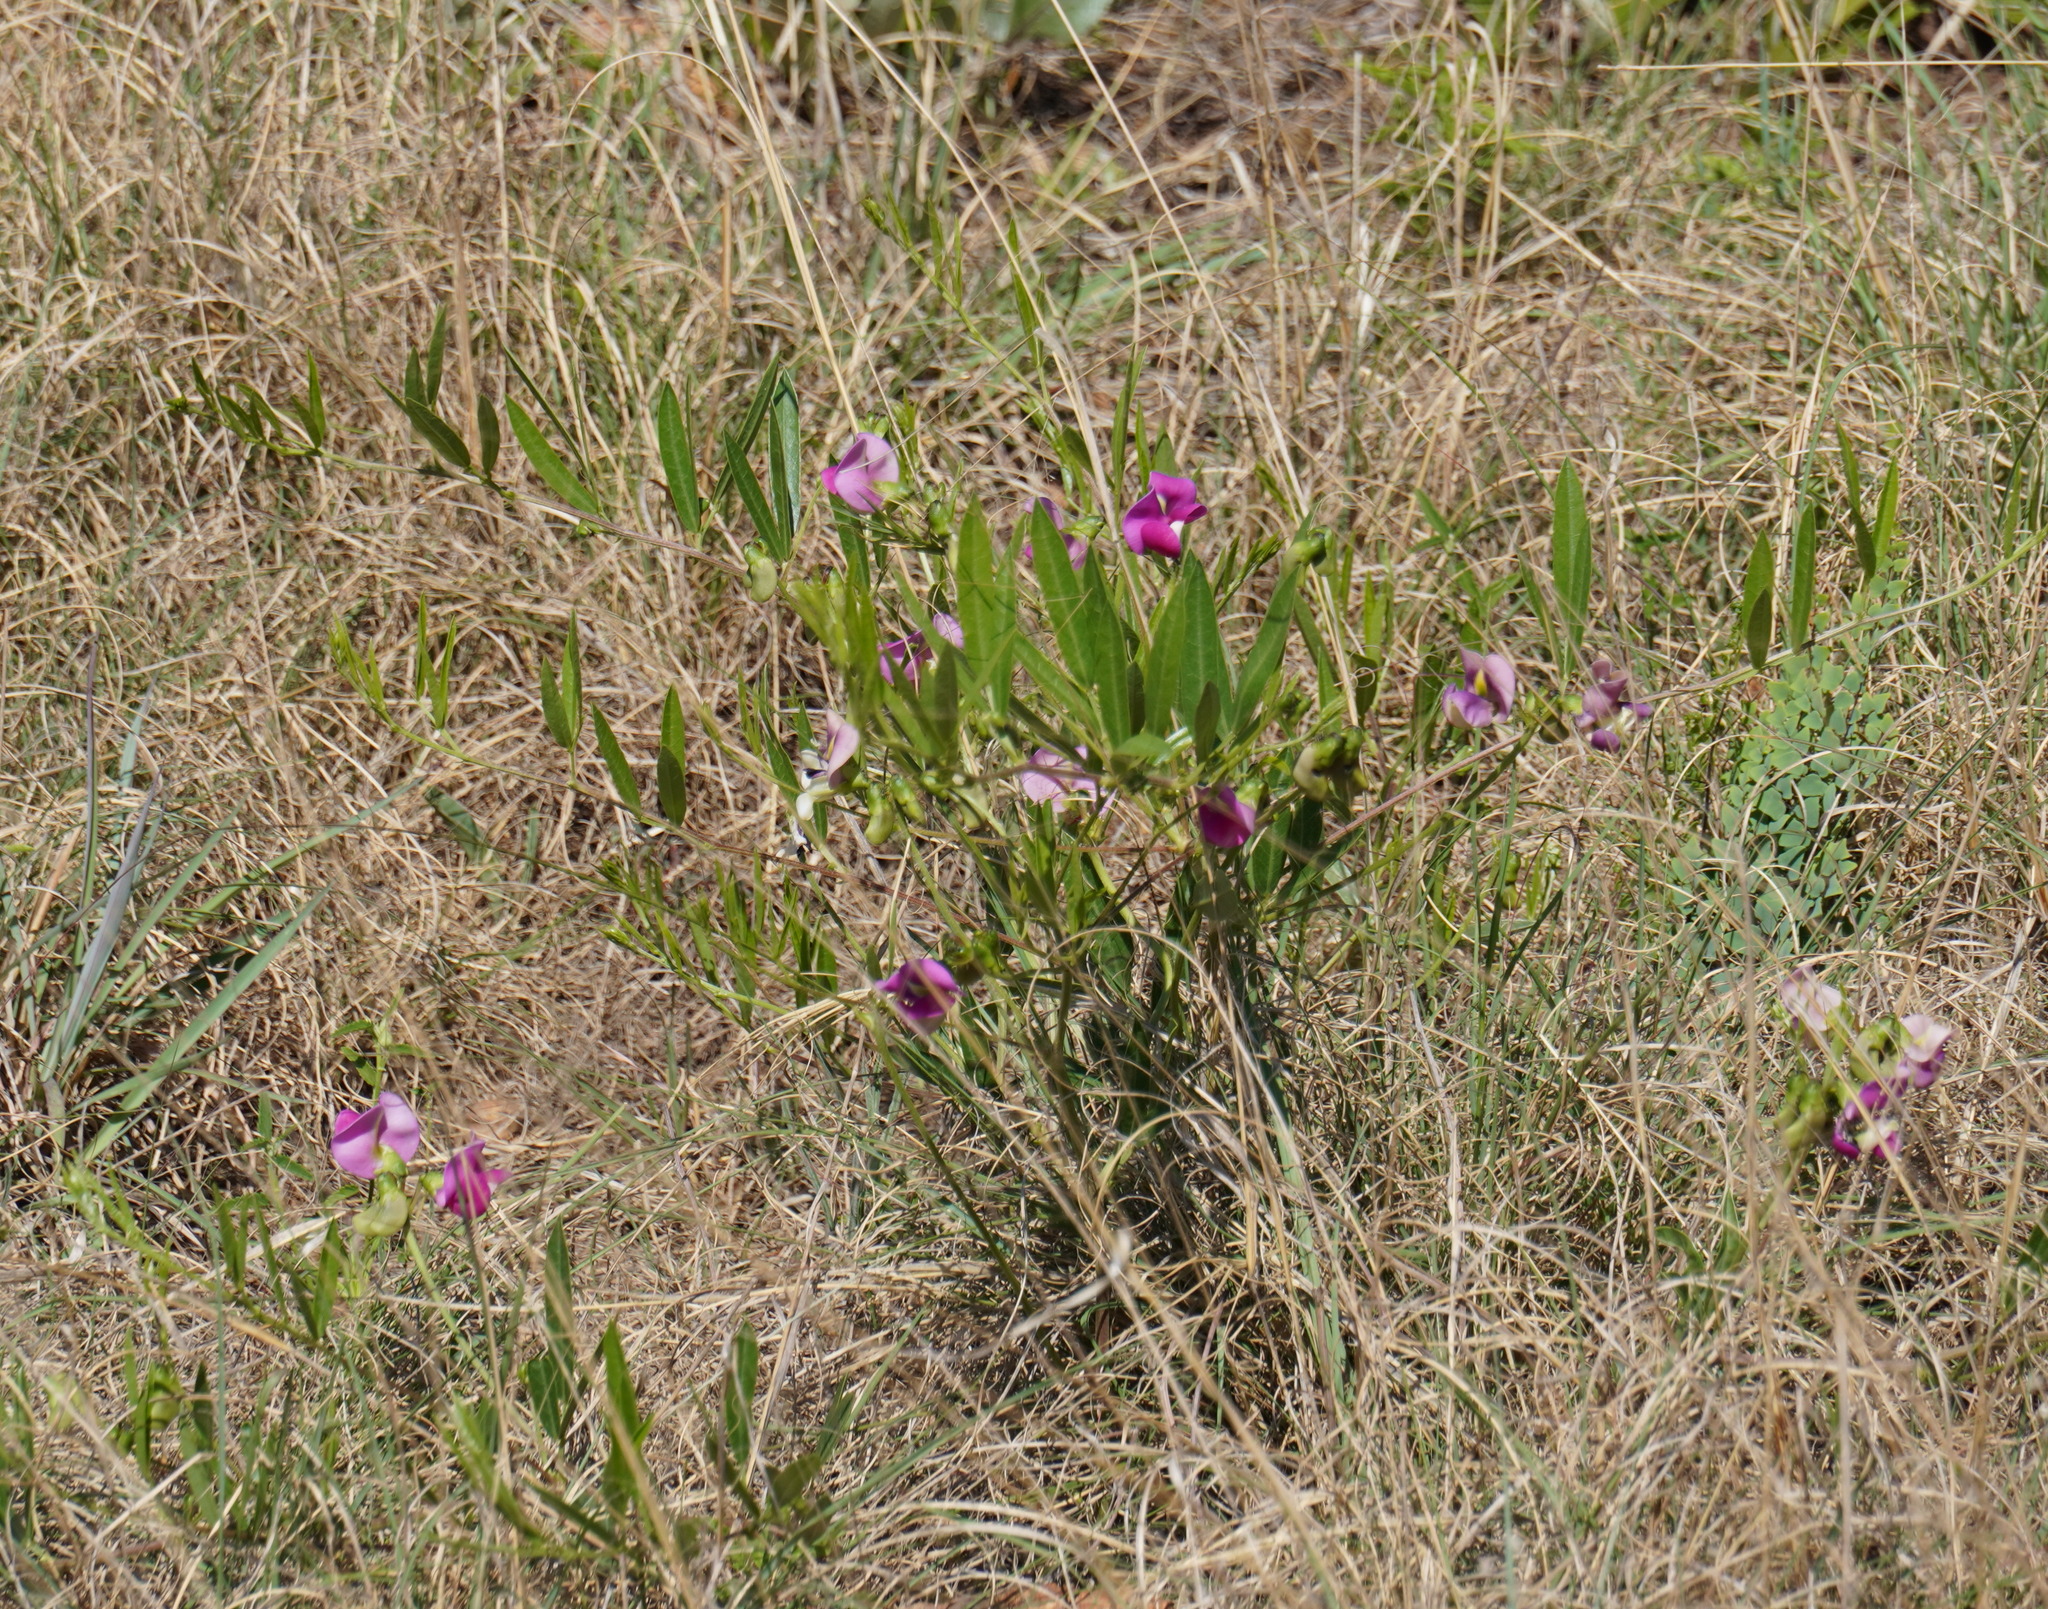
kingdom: Plantae
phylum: Tracheophyta
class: Magnoliopsida
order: Fabales
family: Fabaceae
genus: Sphenostylis
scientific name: Sphenostylis angustifolia
